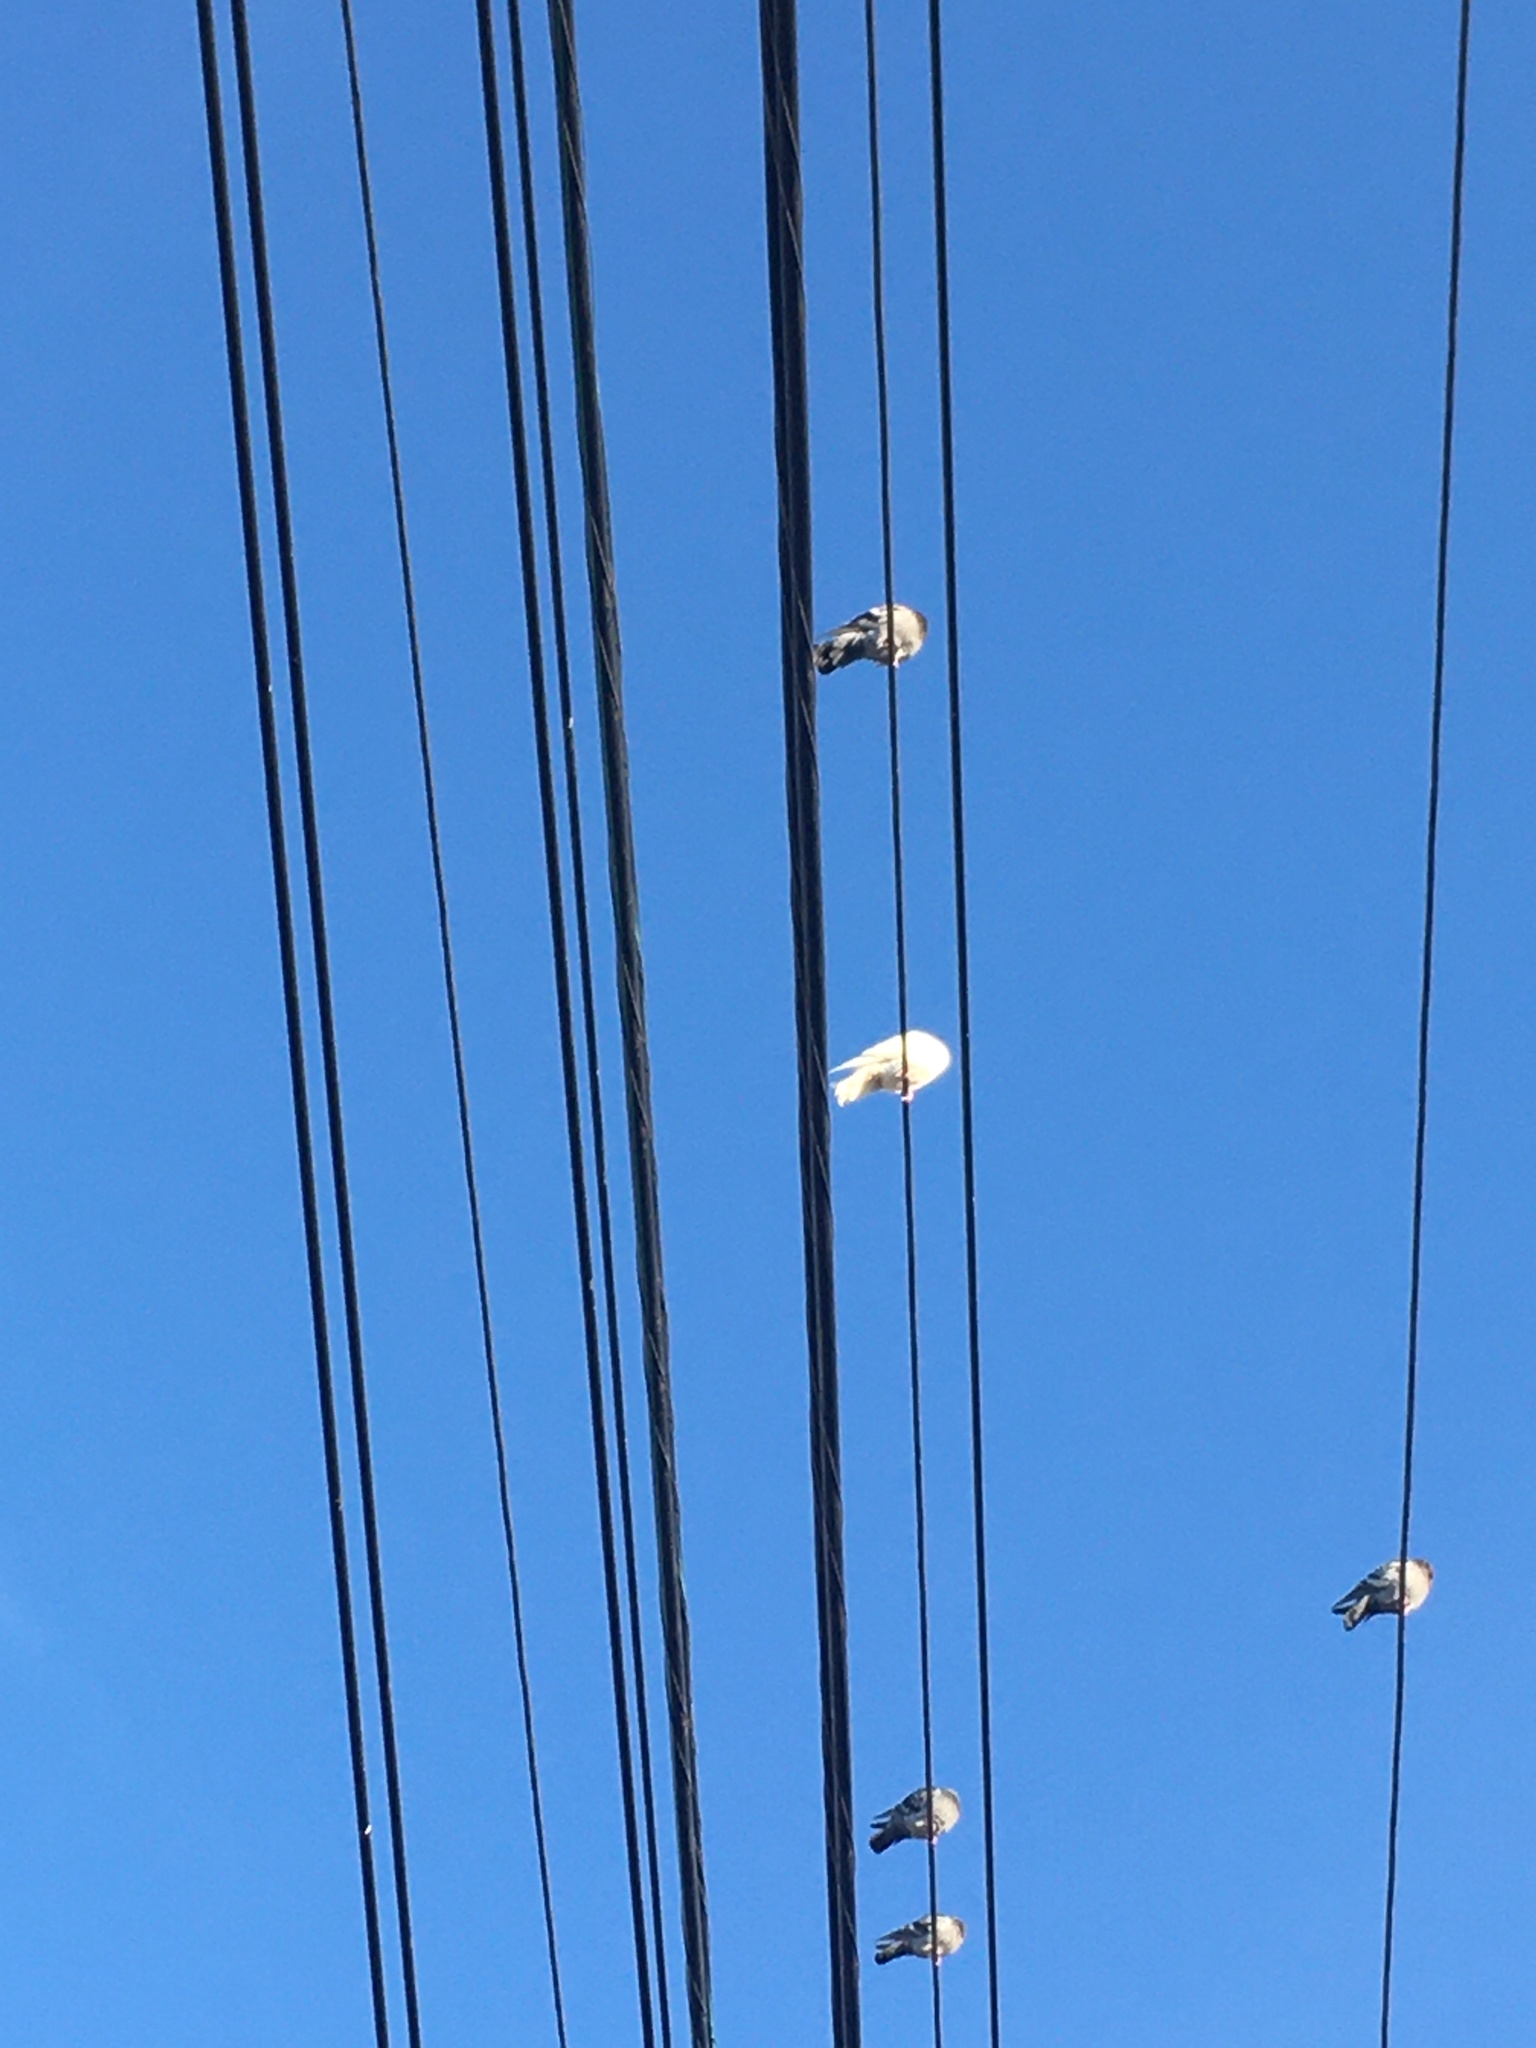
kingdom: Animalia
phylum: Chordata
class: Aves
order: Columbiformes
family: Columbidae
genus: Columba
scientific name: Columba livia
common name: Rock pigeon
